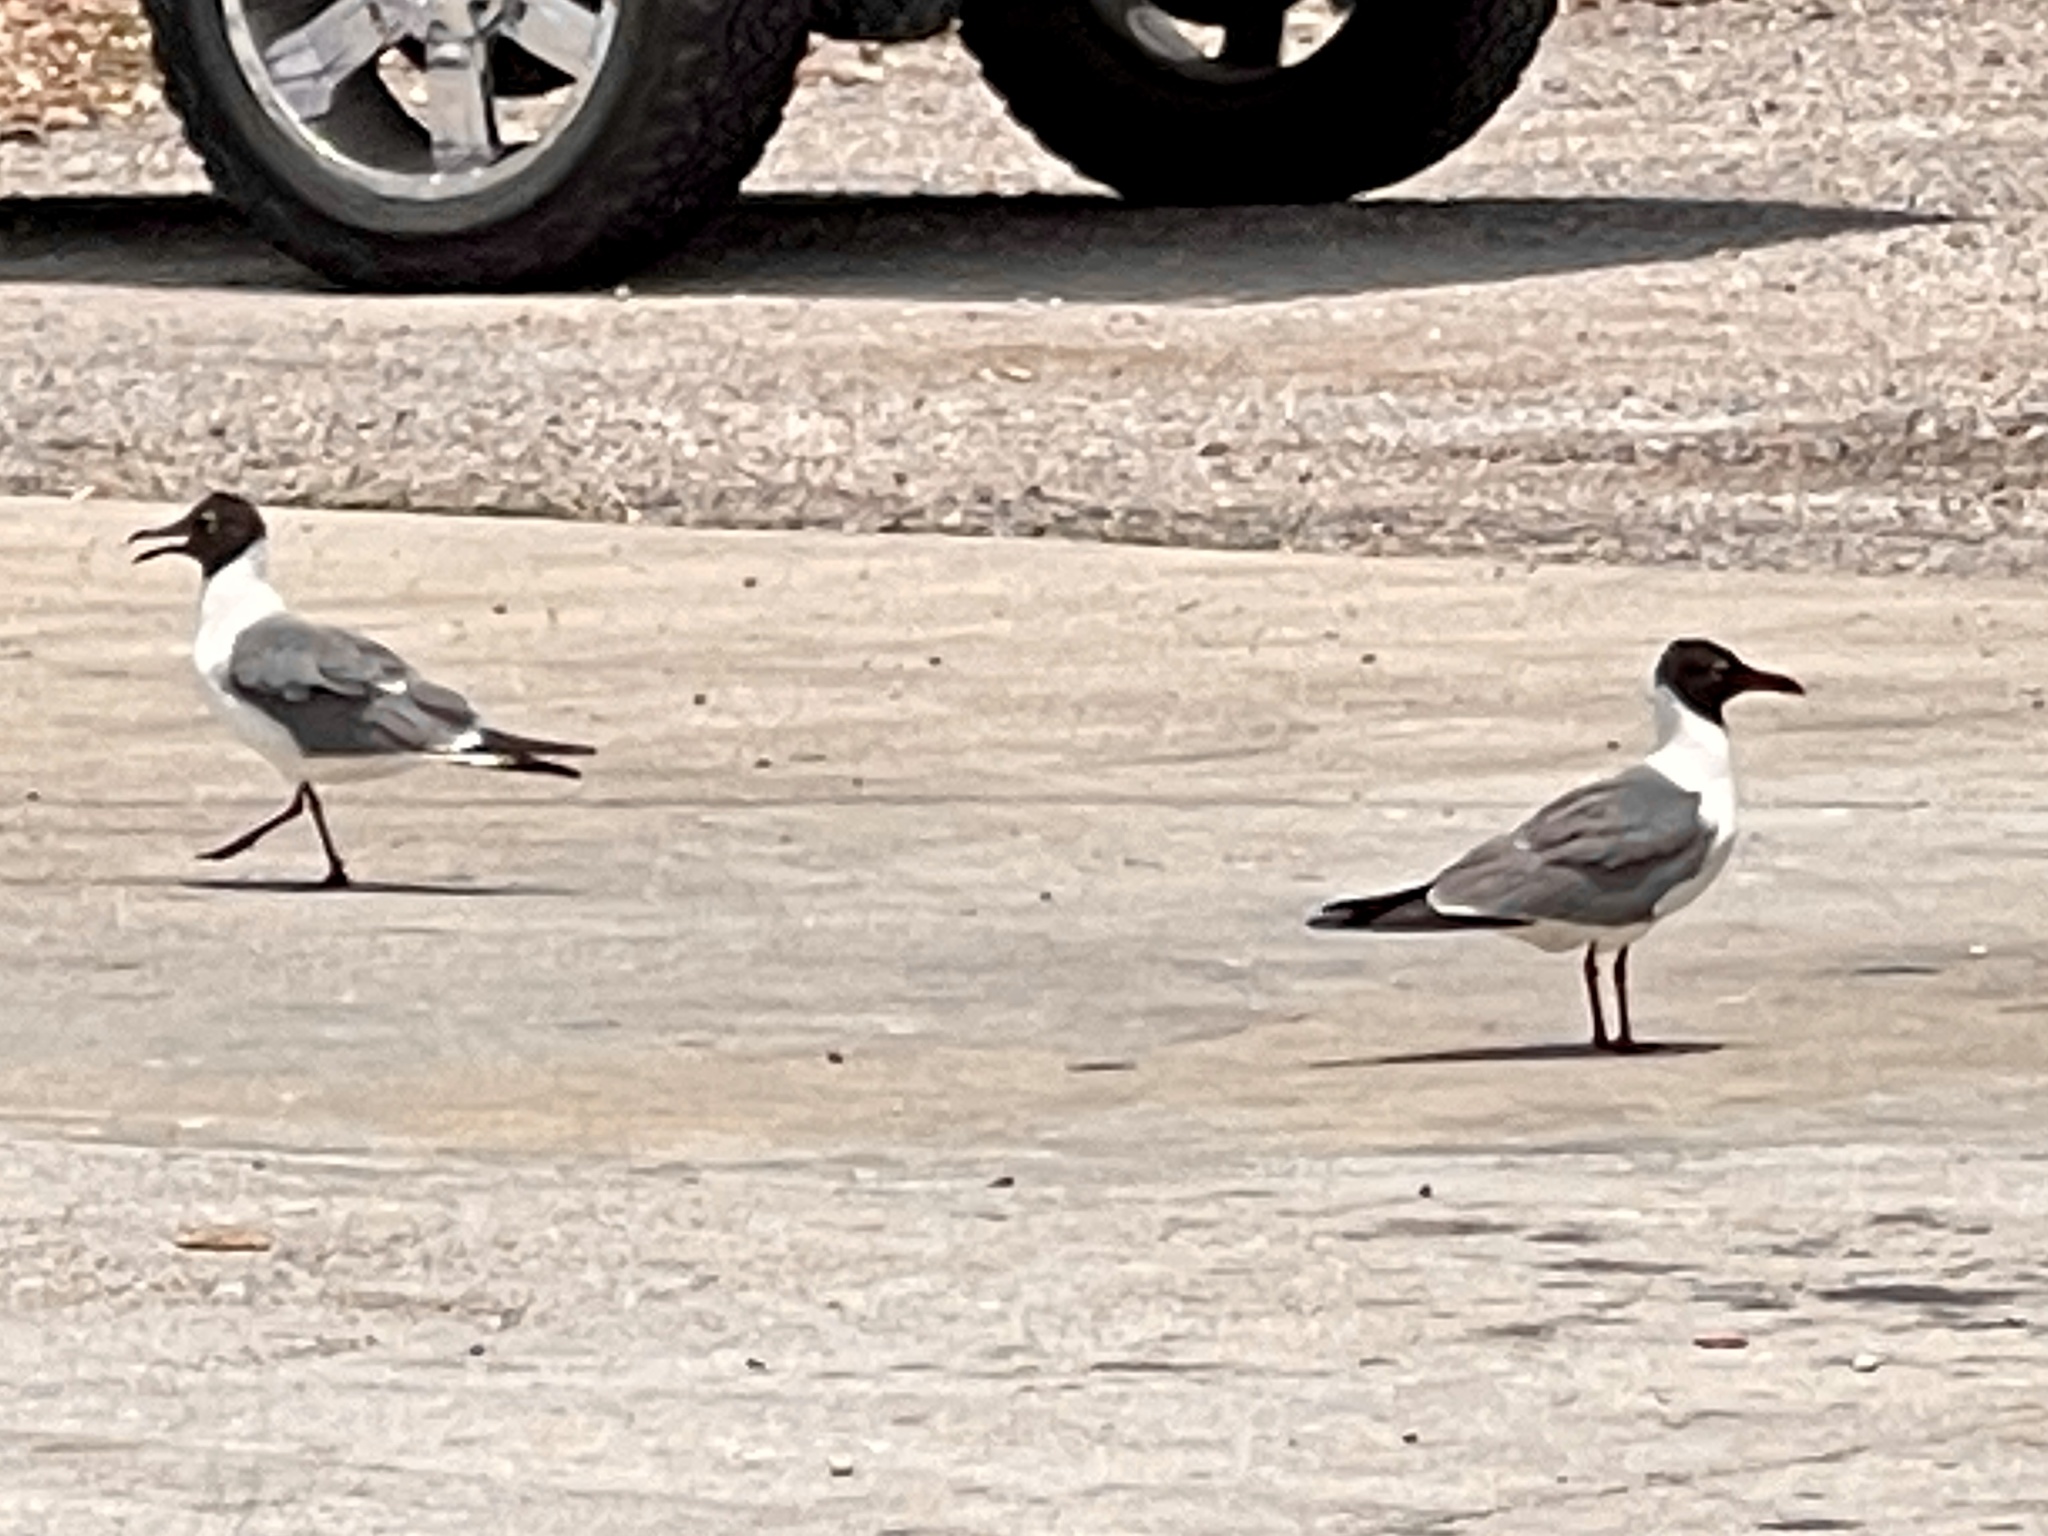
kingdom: Animalia
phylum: Chordata
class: Aves
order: Charadriiformes
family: Laridae
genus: Leucophaeus
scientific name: Leucophaeus atricilla
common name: Laughing gull
